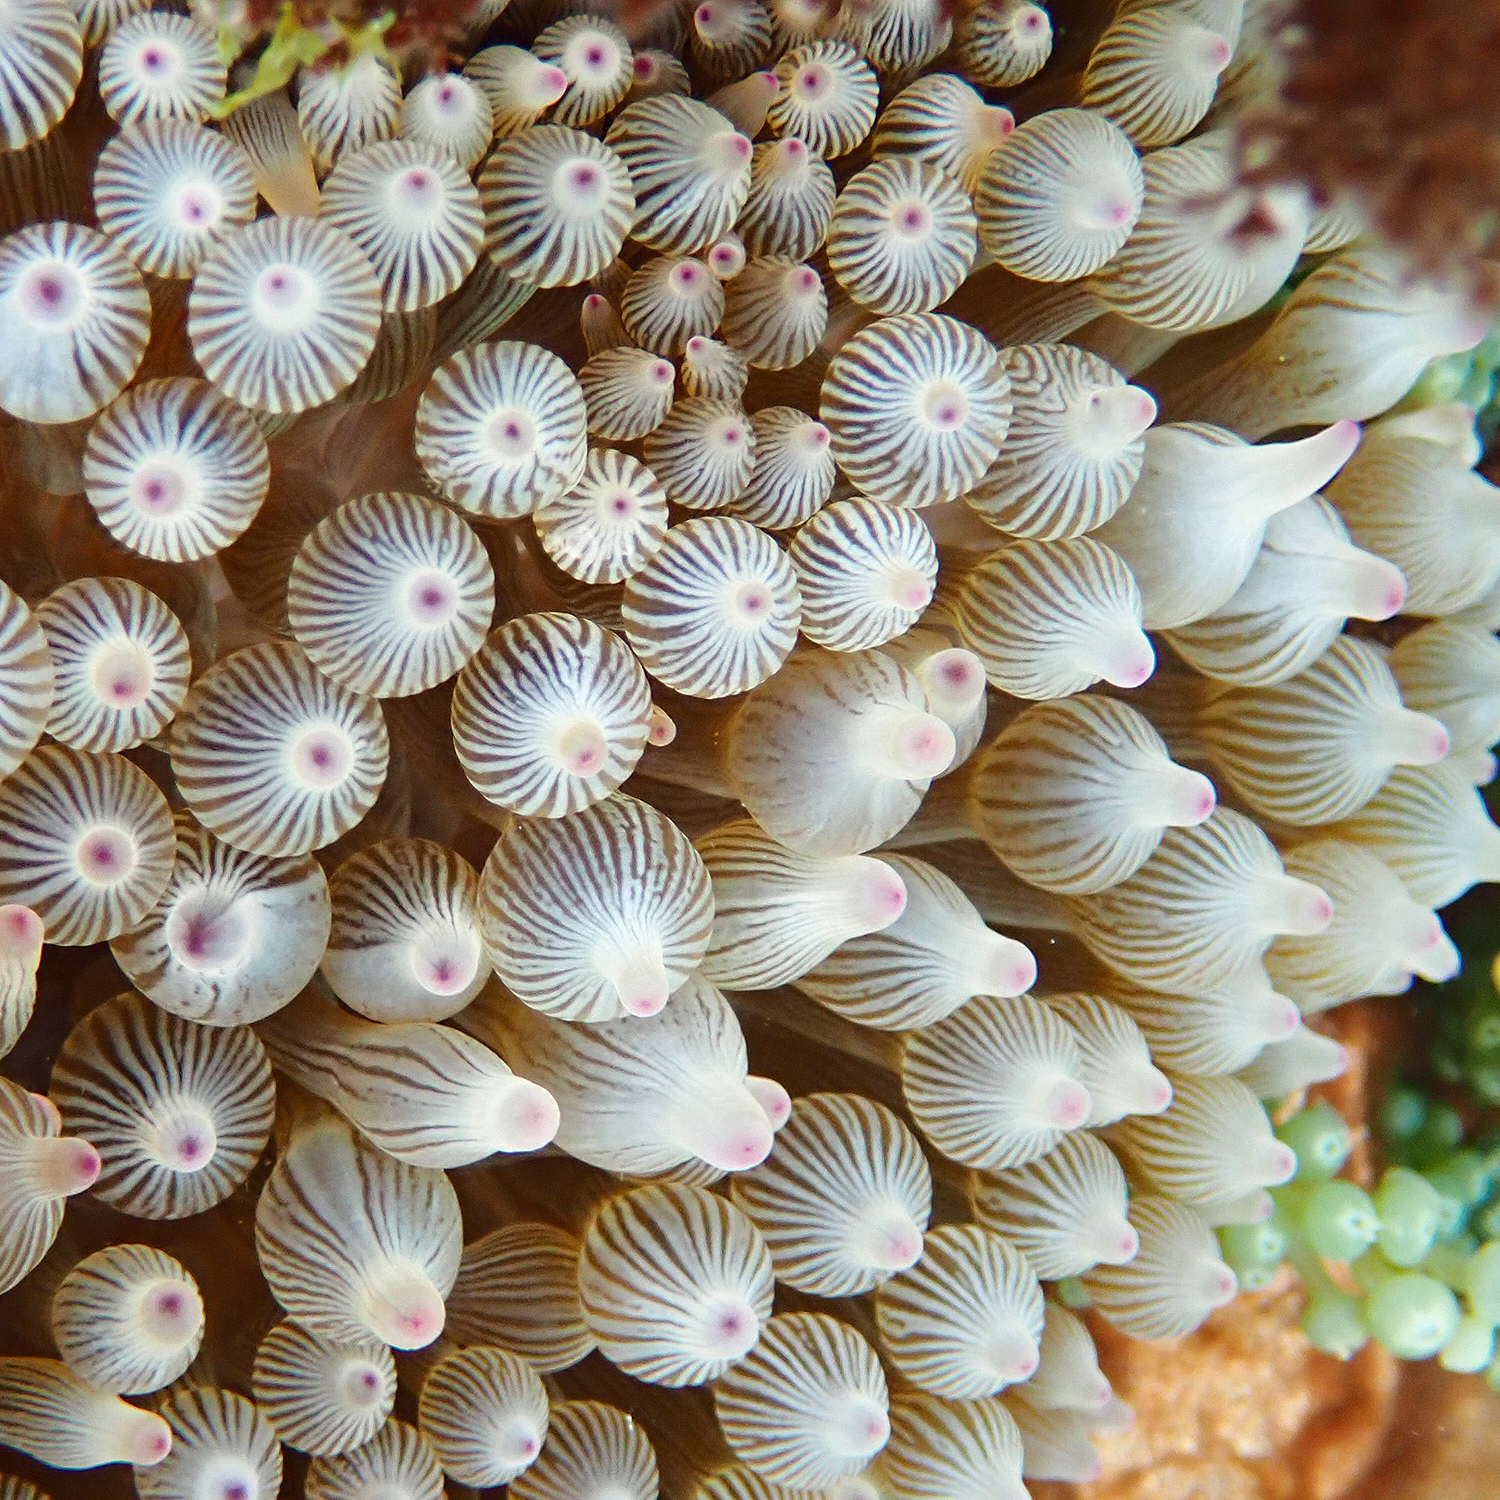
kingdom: Animalia
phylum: Cnidaria
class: Anthozoa
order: Actiniaria
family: Actiniidae
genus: Entacmaea
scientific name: Entacmaea quadricolor
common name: Bulb tentacle sea anemone
